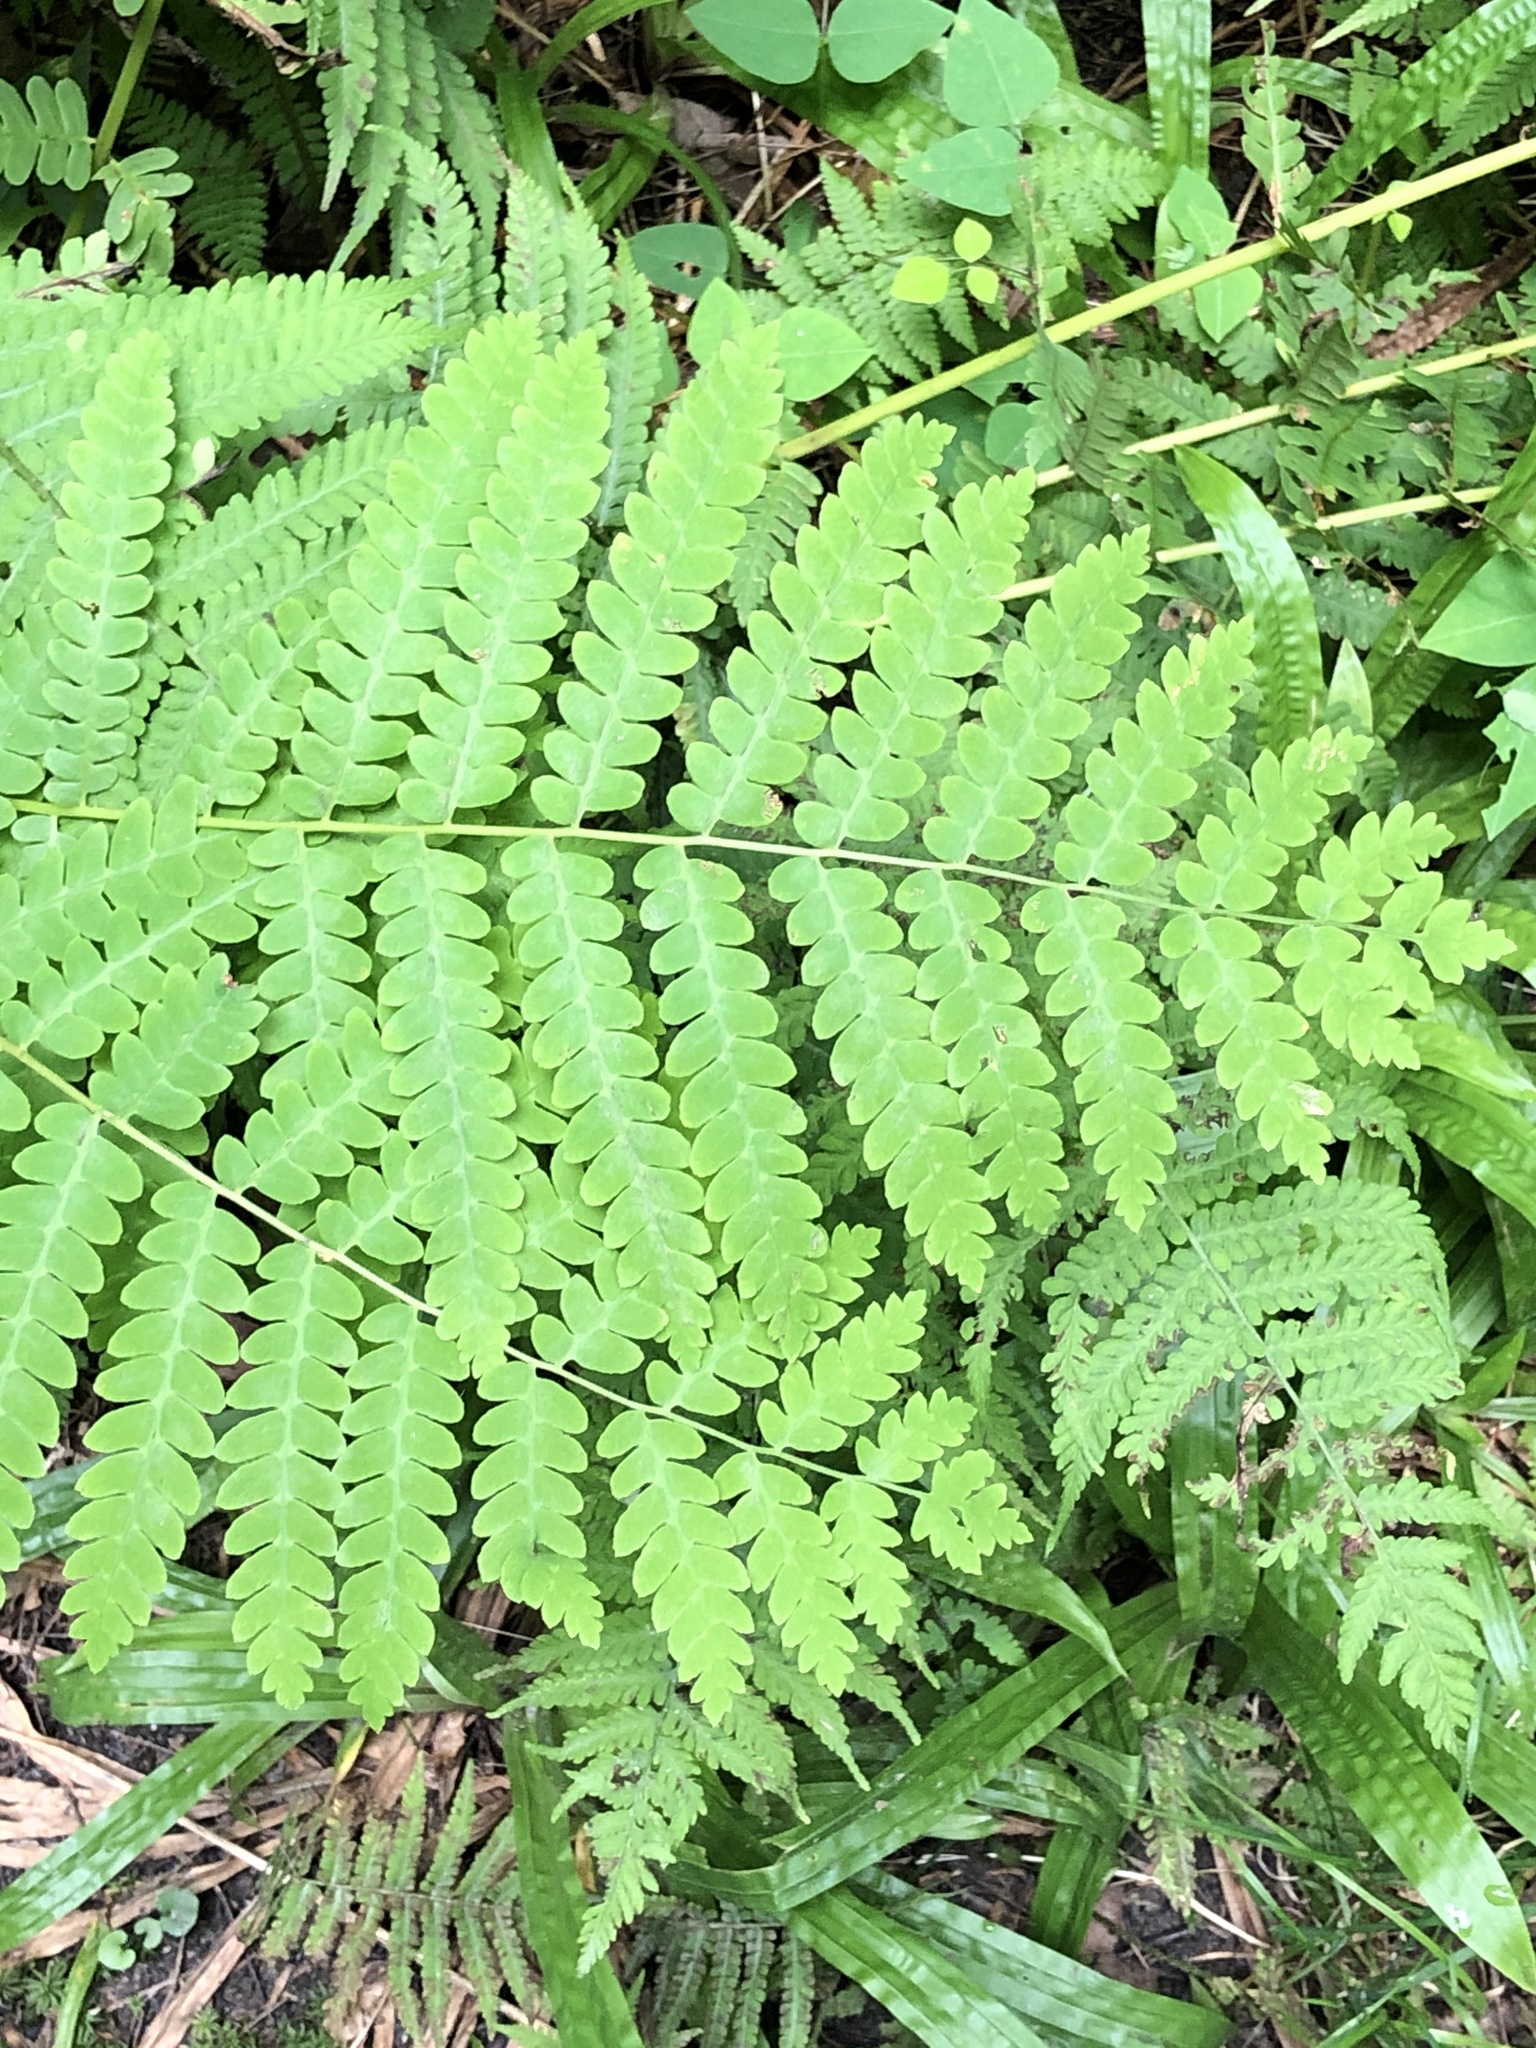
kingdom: Plantae
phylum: Tracheophyta
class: Polypodiopsida
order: Osmundales
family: Osmundaceae
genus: Claytosmunda
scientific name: Claytosmunda claytoniana
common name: Clayton's fern
